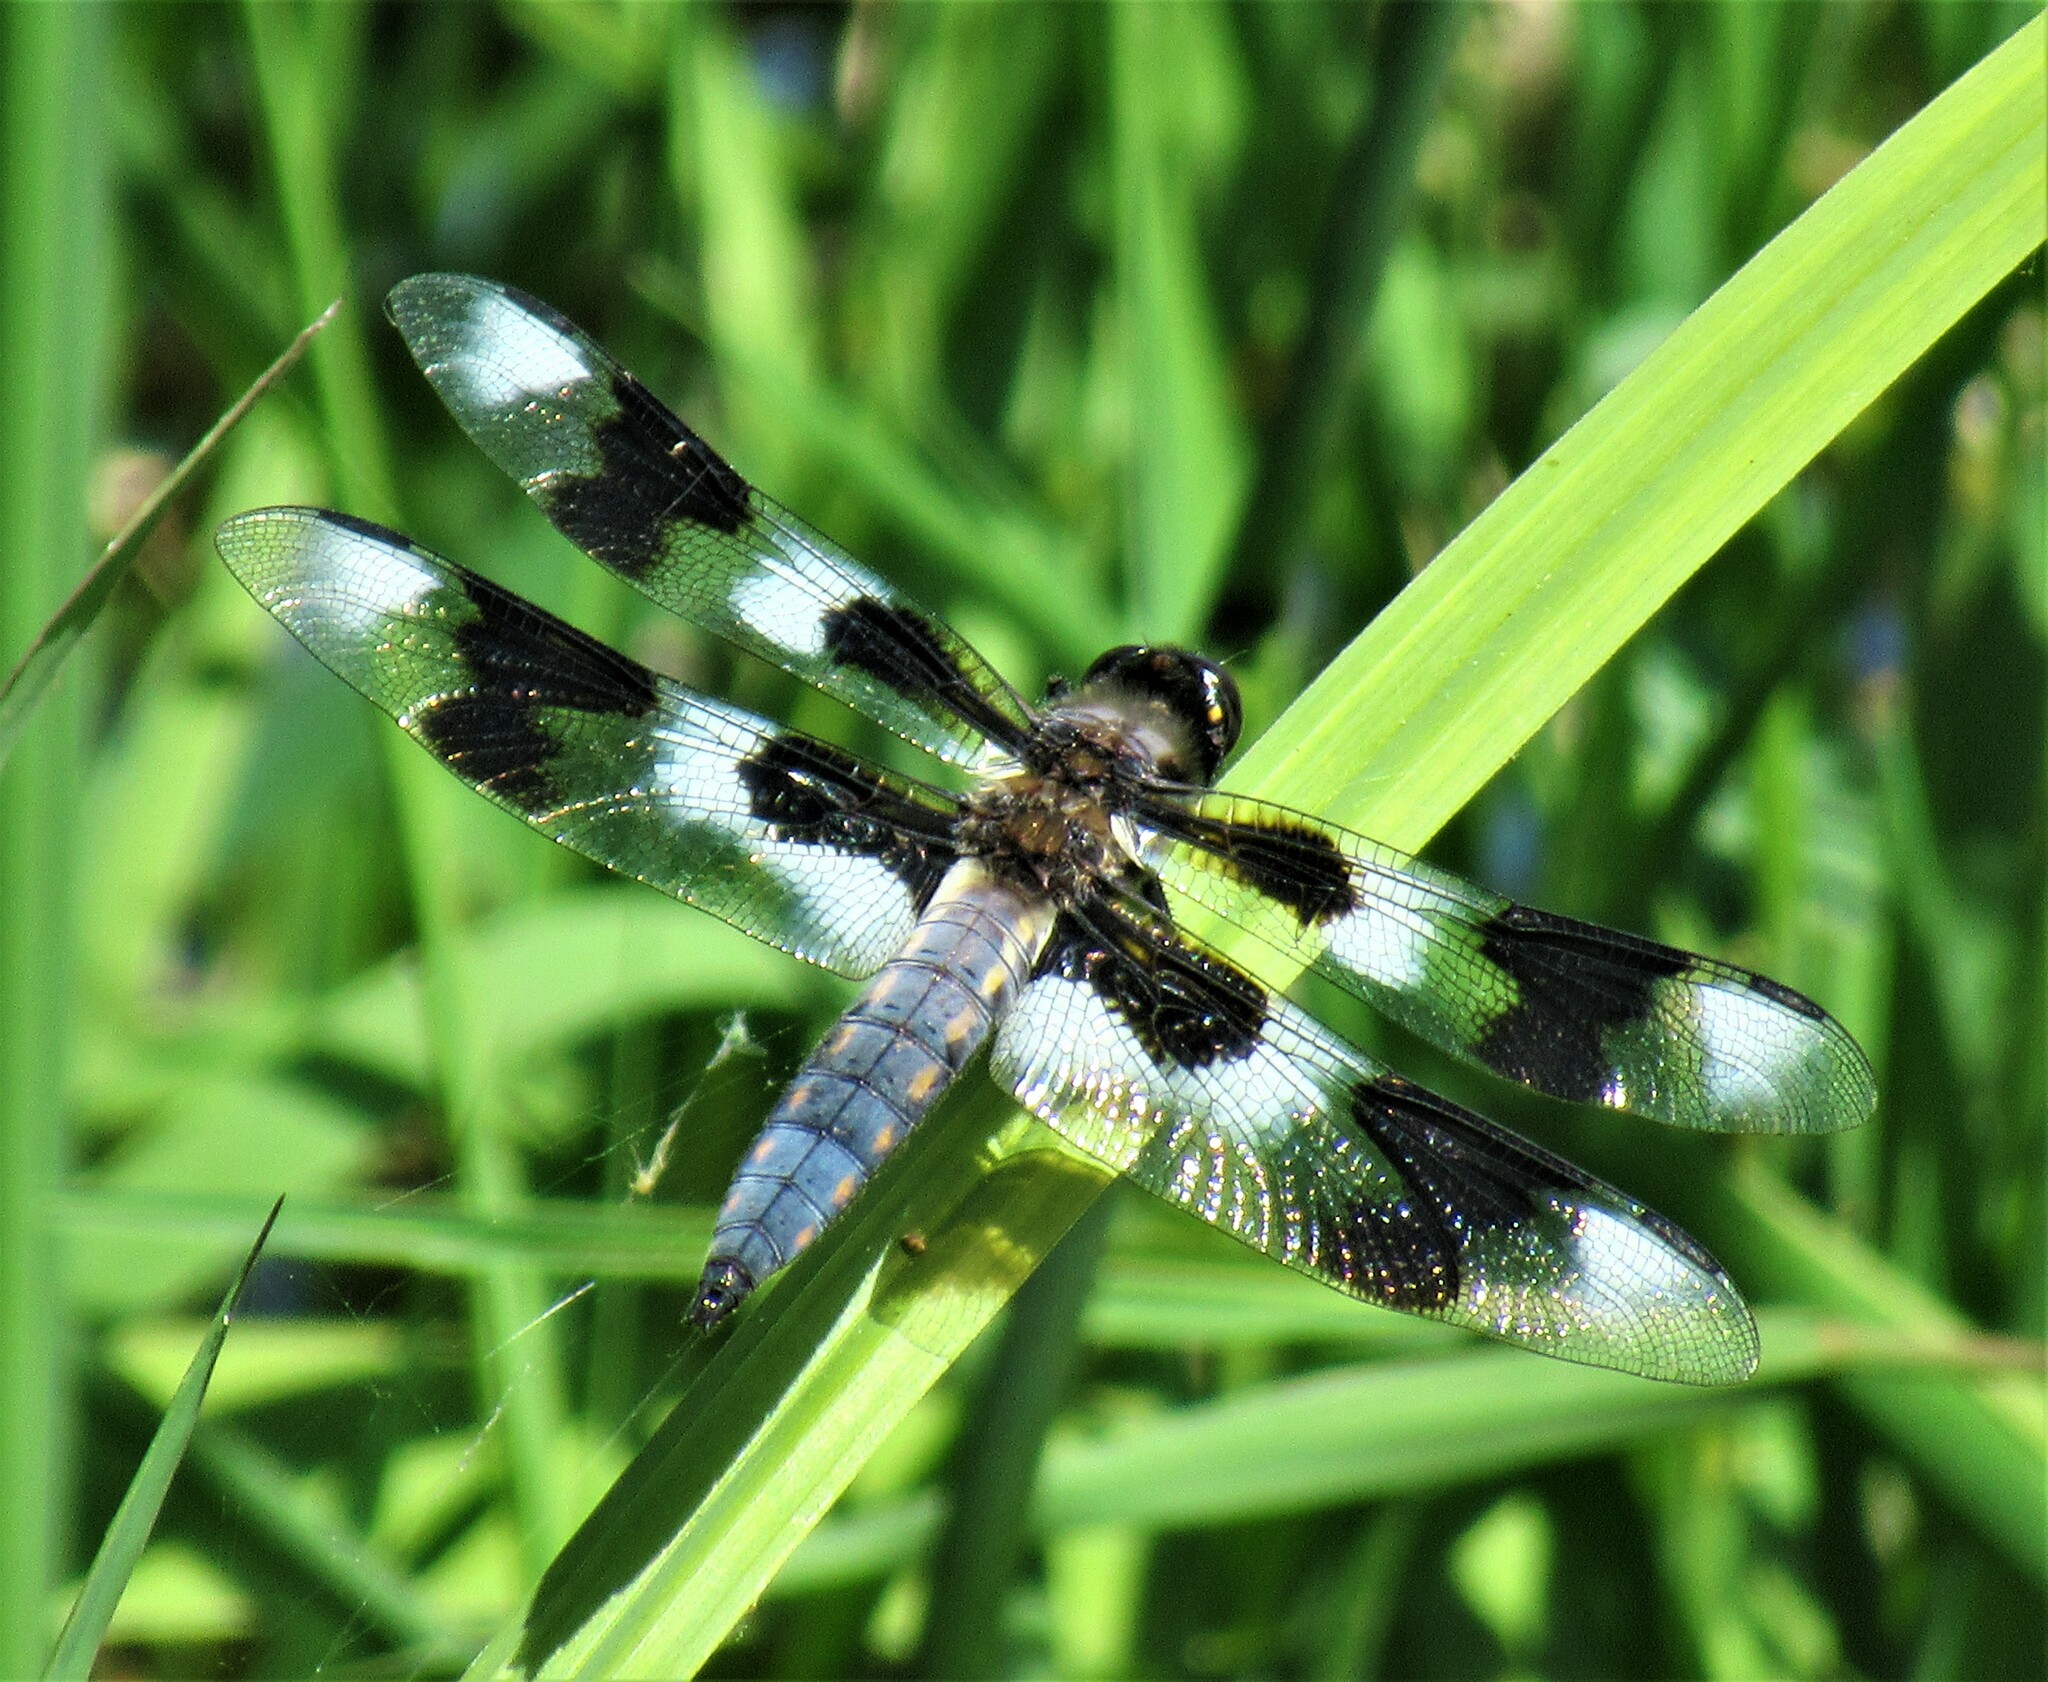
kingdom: Animalia
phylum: Arthropoda
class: Insecta
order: Odonata
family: Libellulidae
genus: Libellula
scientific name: Libellula forensis
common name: Eight-spotted skimmer
